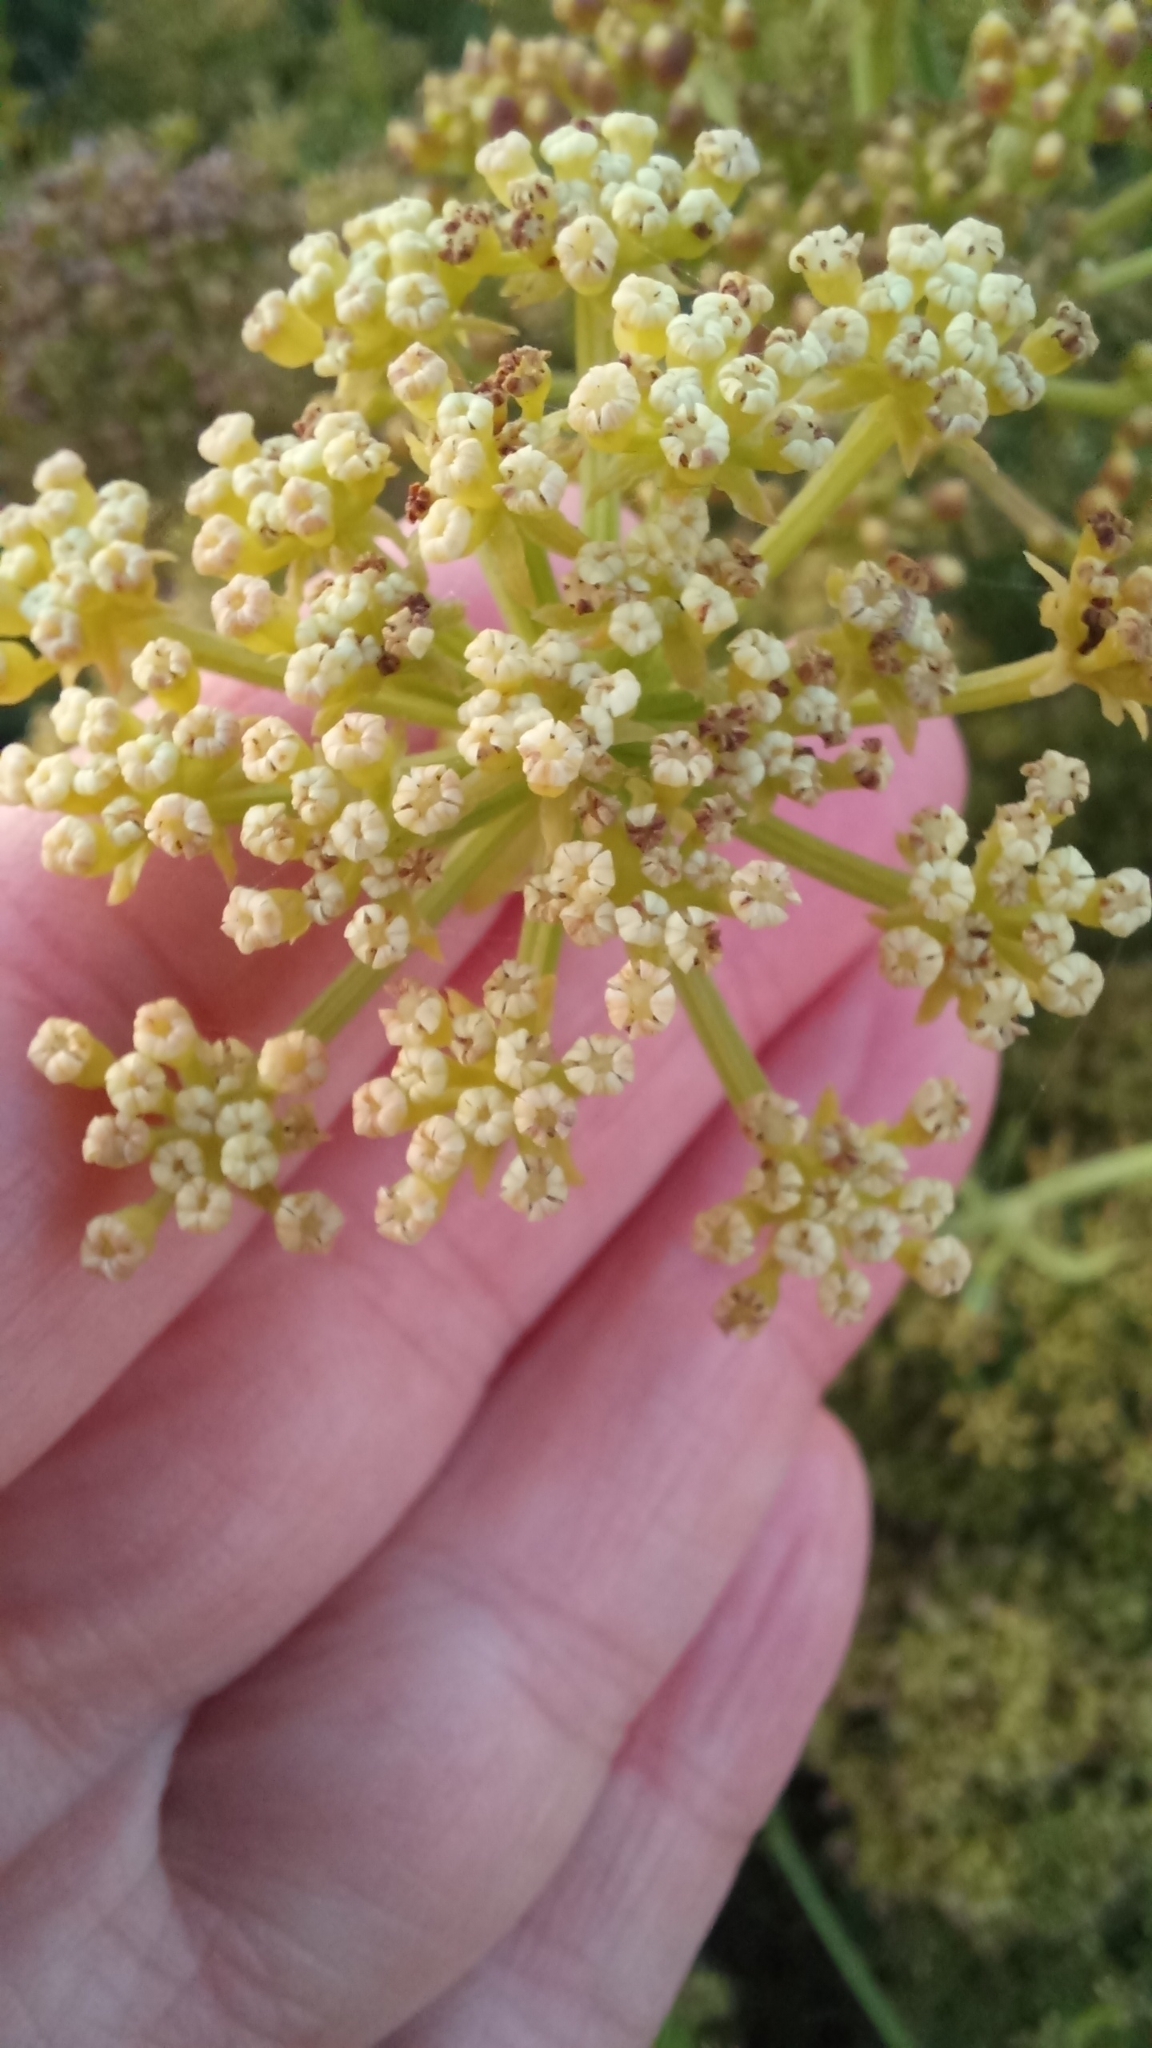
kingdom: Plantae
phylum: Tracheophyta
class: Magnoliopsida
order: Apiales
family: Apiaceae
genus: Crithmum
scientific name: Crithmum maritimum
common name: Rock samphire
